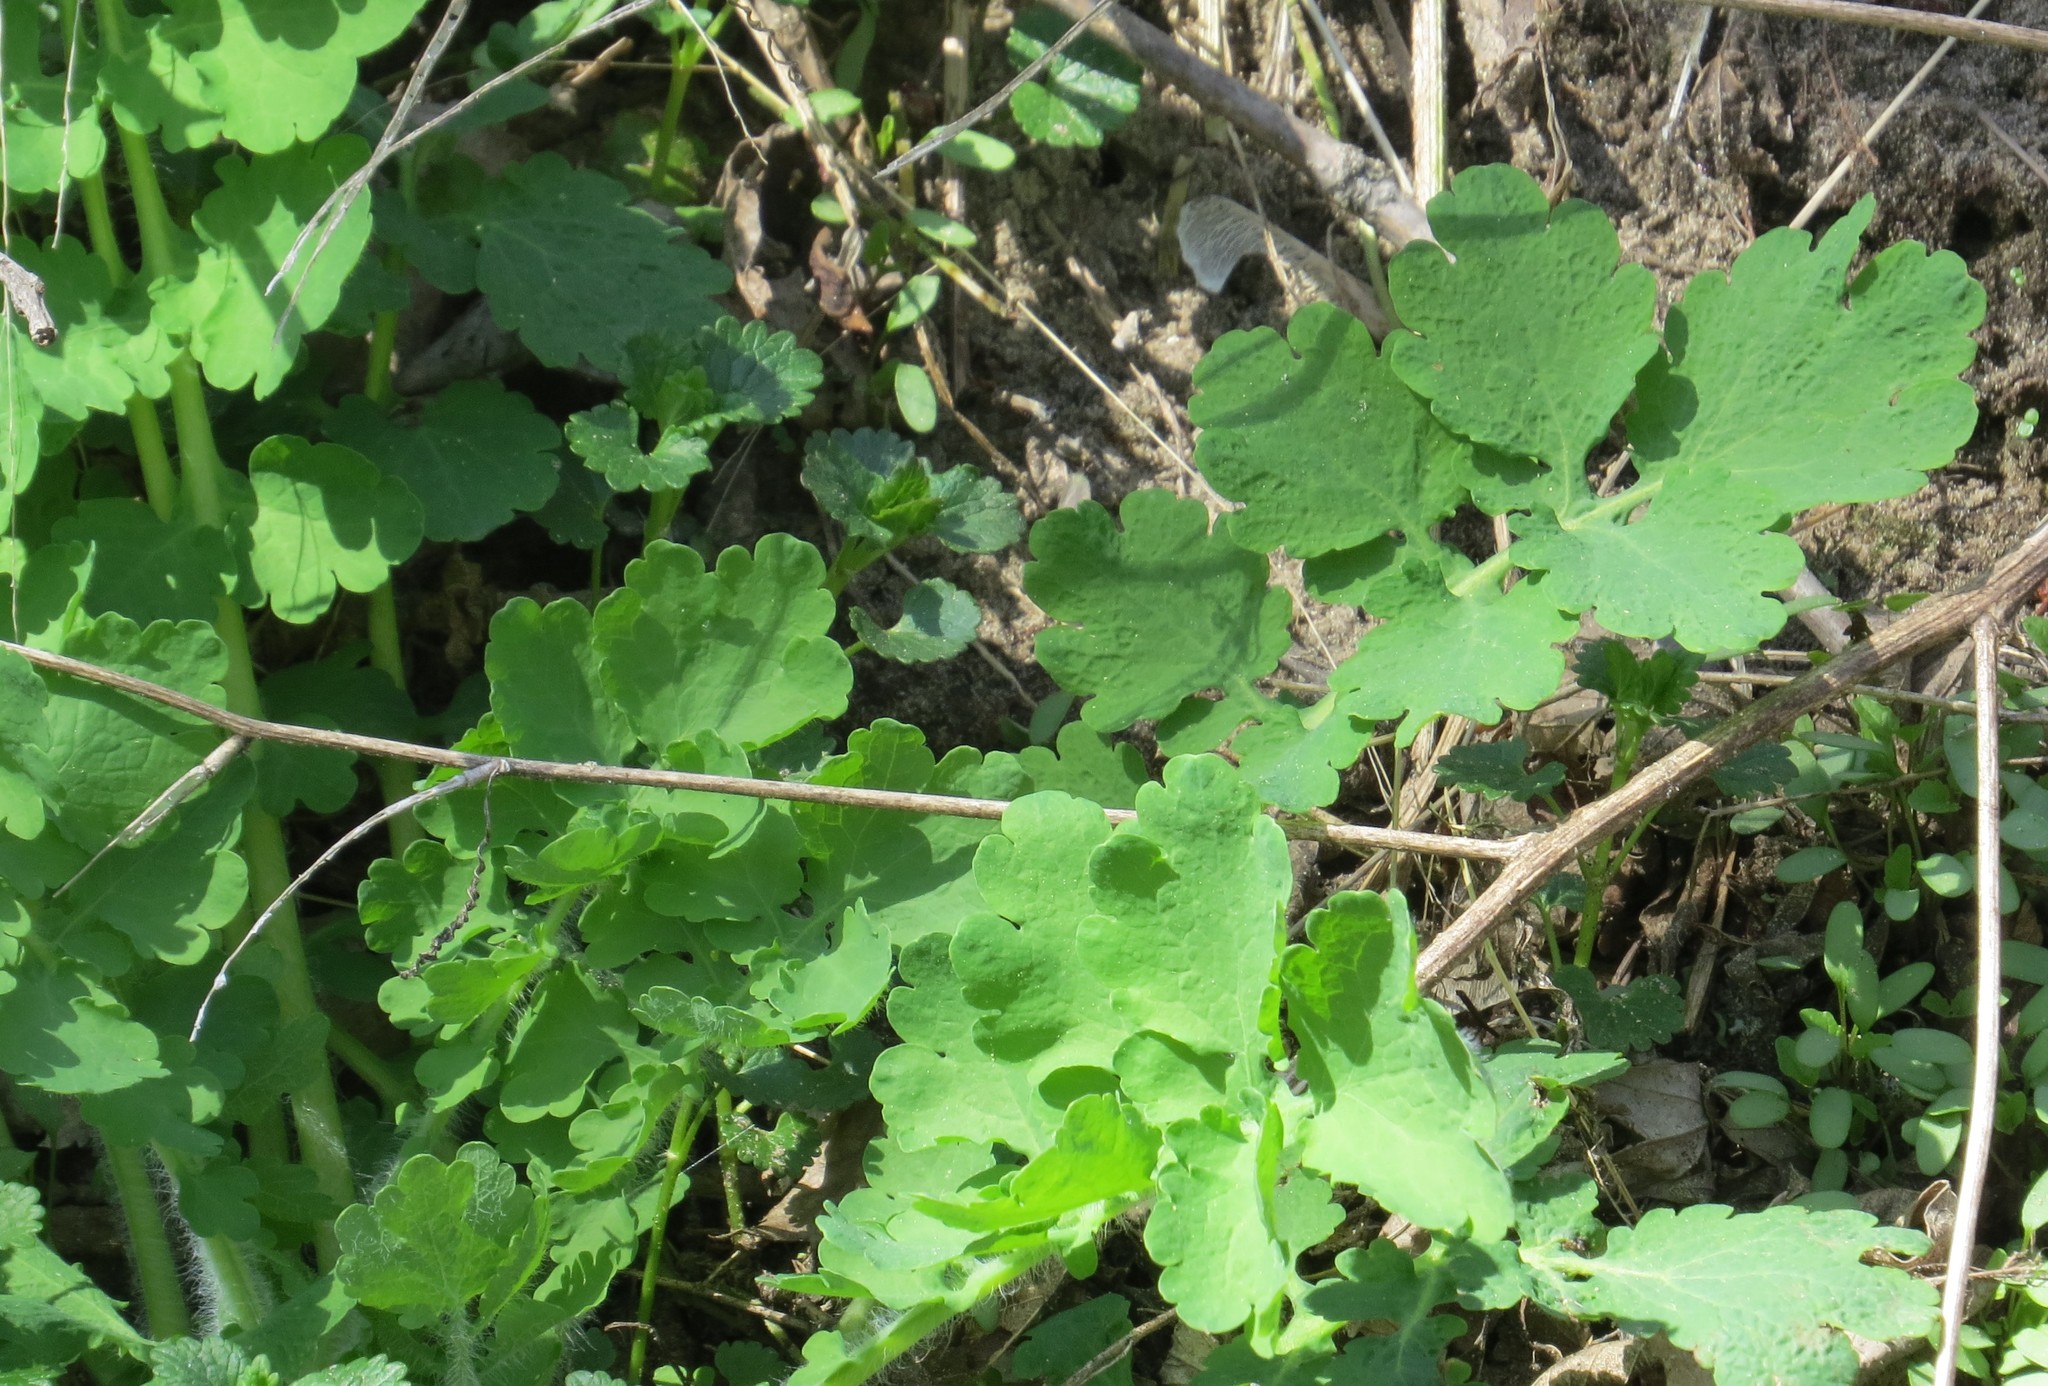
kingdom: Plantae
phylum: Tracheophyta
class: Magnoliopsida
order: Ranunculales
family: Papaveraceae
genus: Chelidonium
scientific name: Chelidonium majus
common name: Greater celandine
